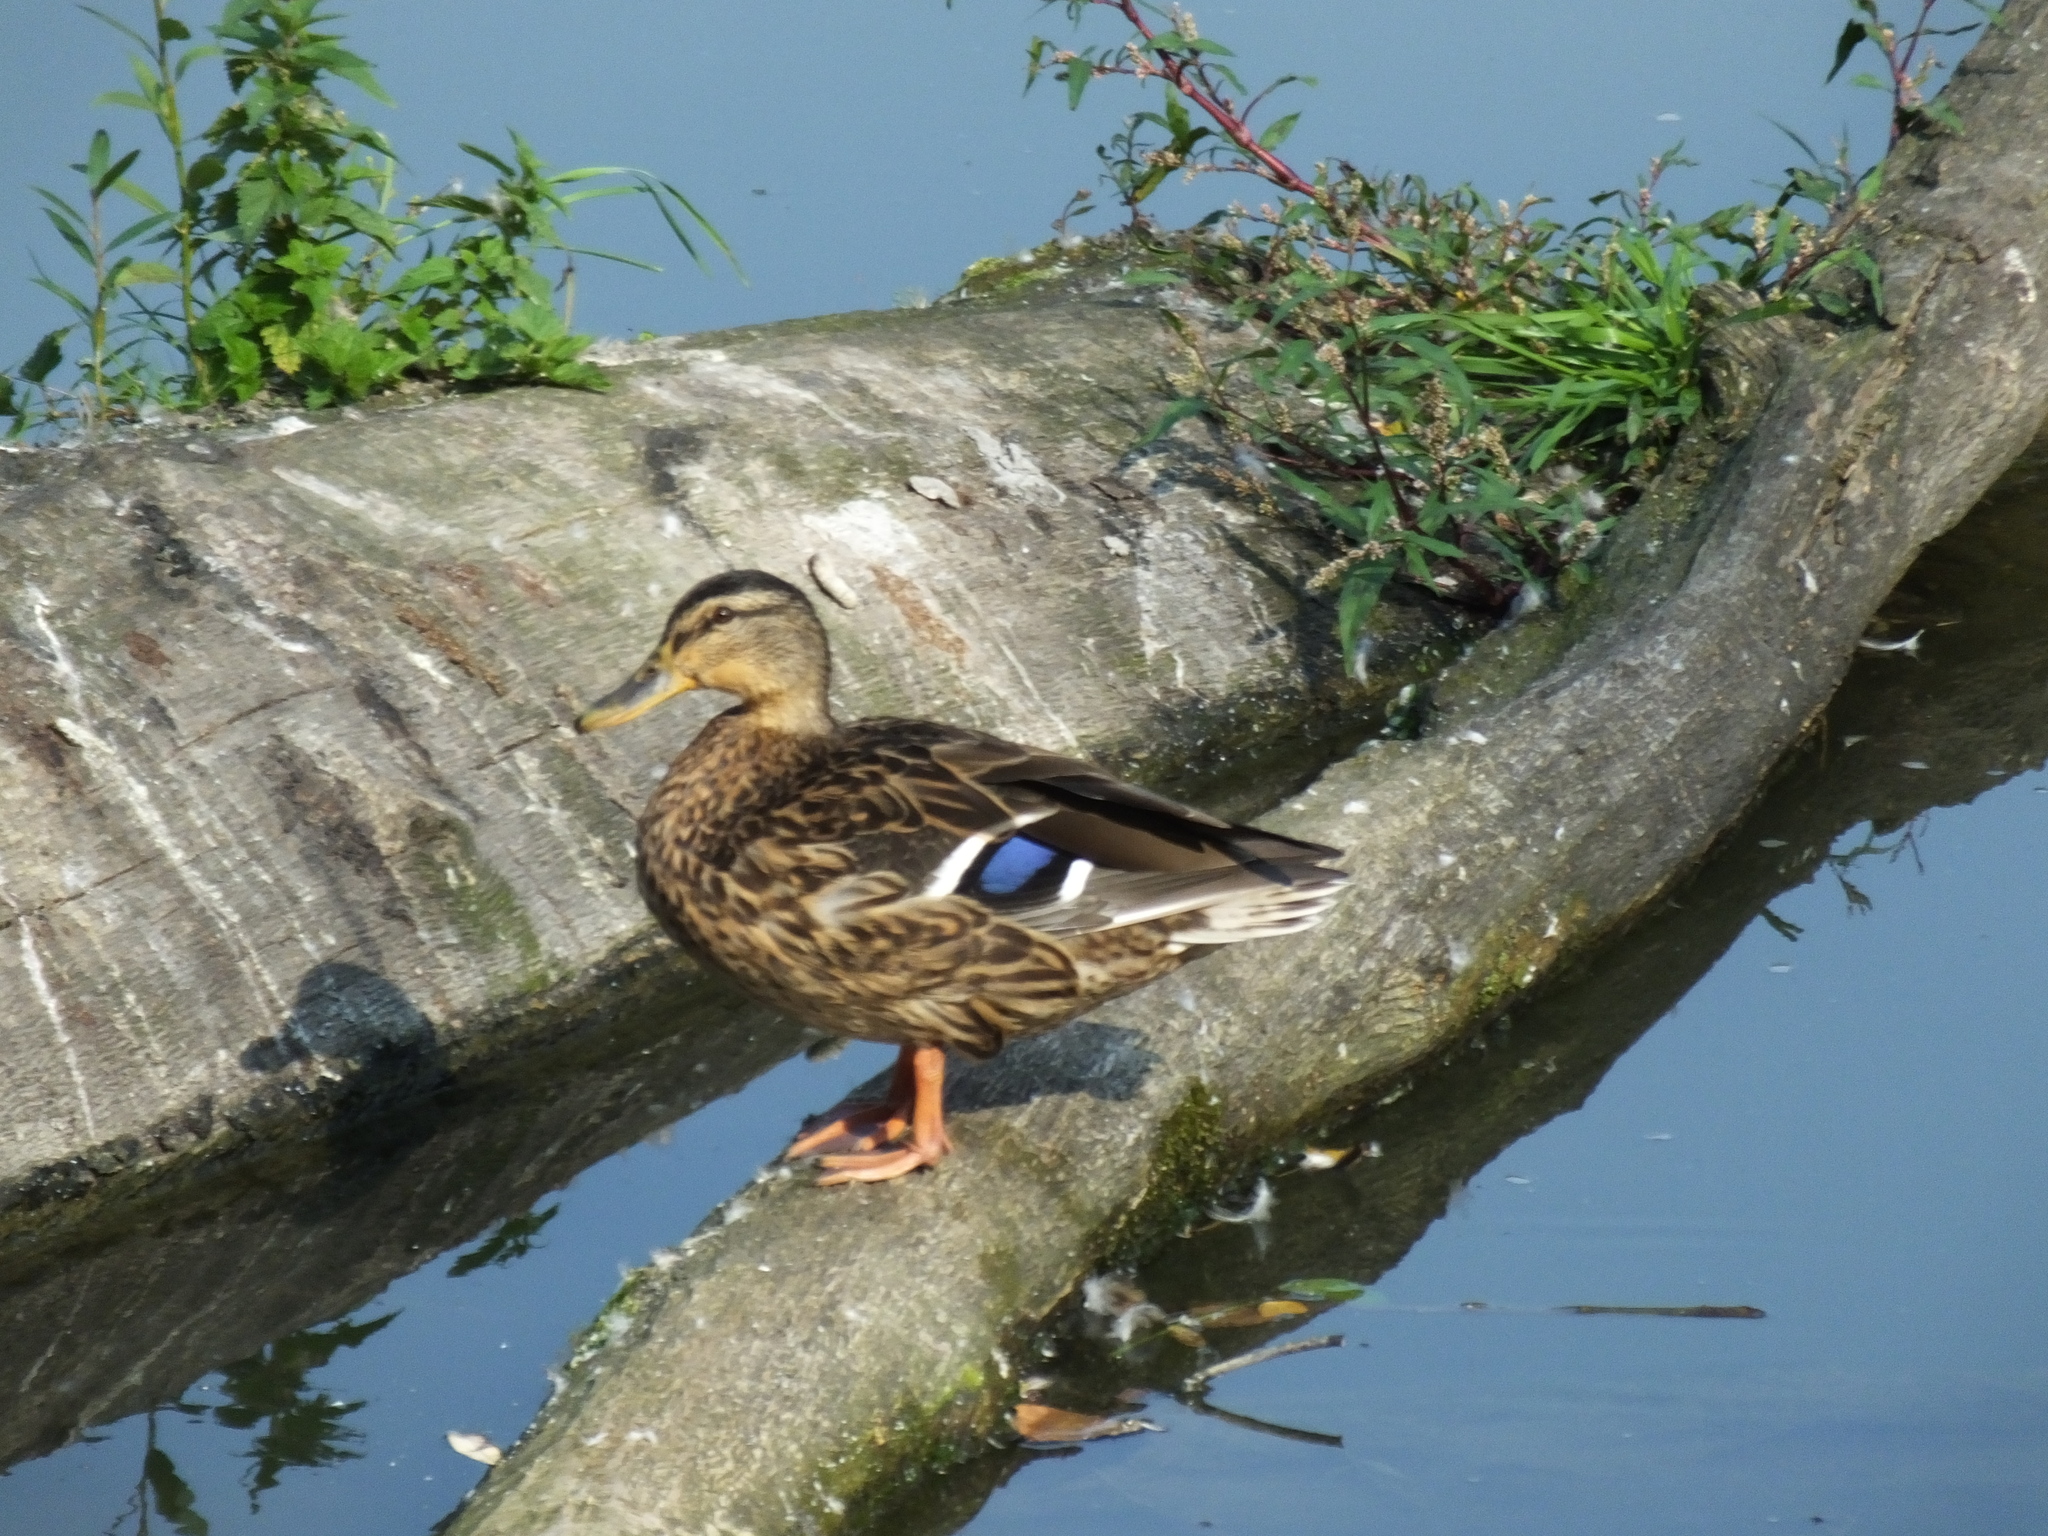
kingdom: Animalia
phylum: Chordata
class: Aves
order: Anseriformes
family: Anatidae
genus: Anas
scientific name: Anas platyrhynchos
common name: Mallard
